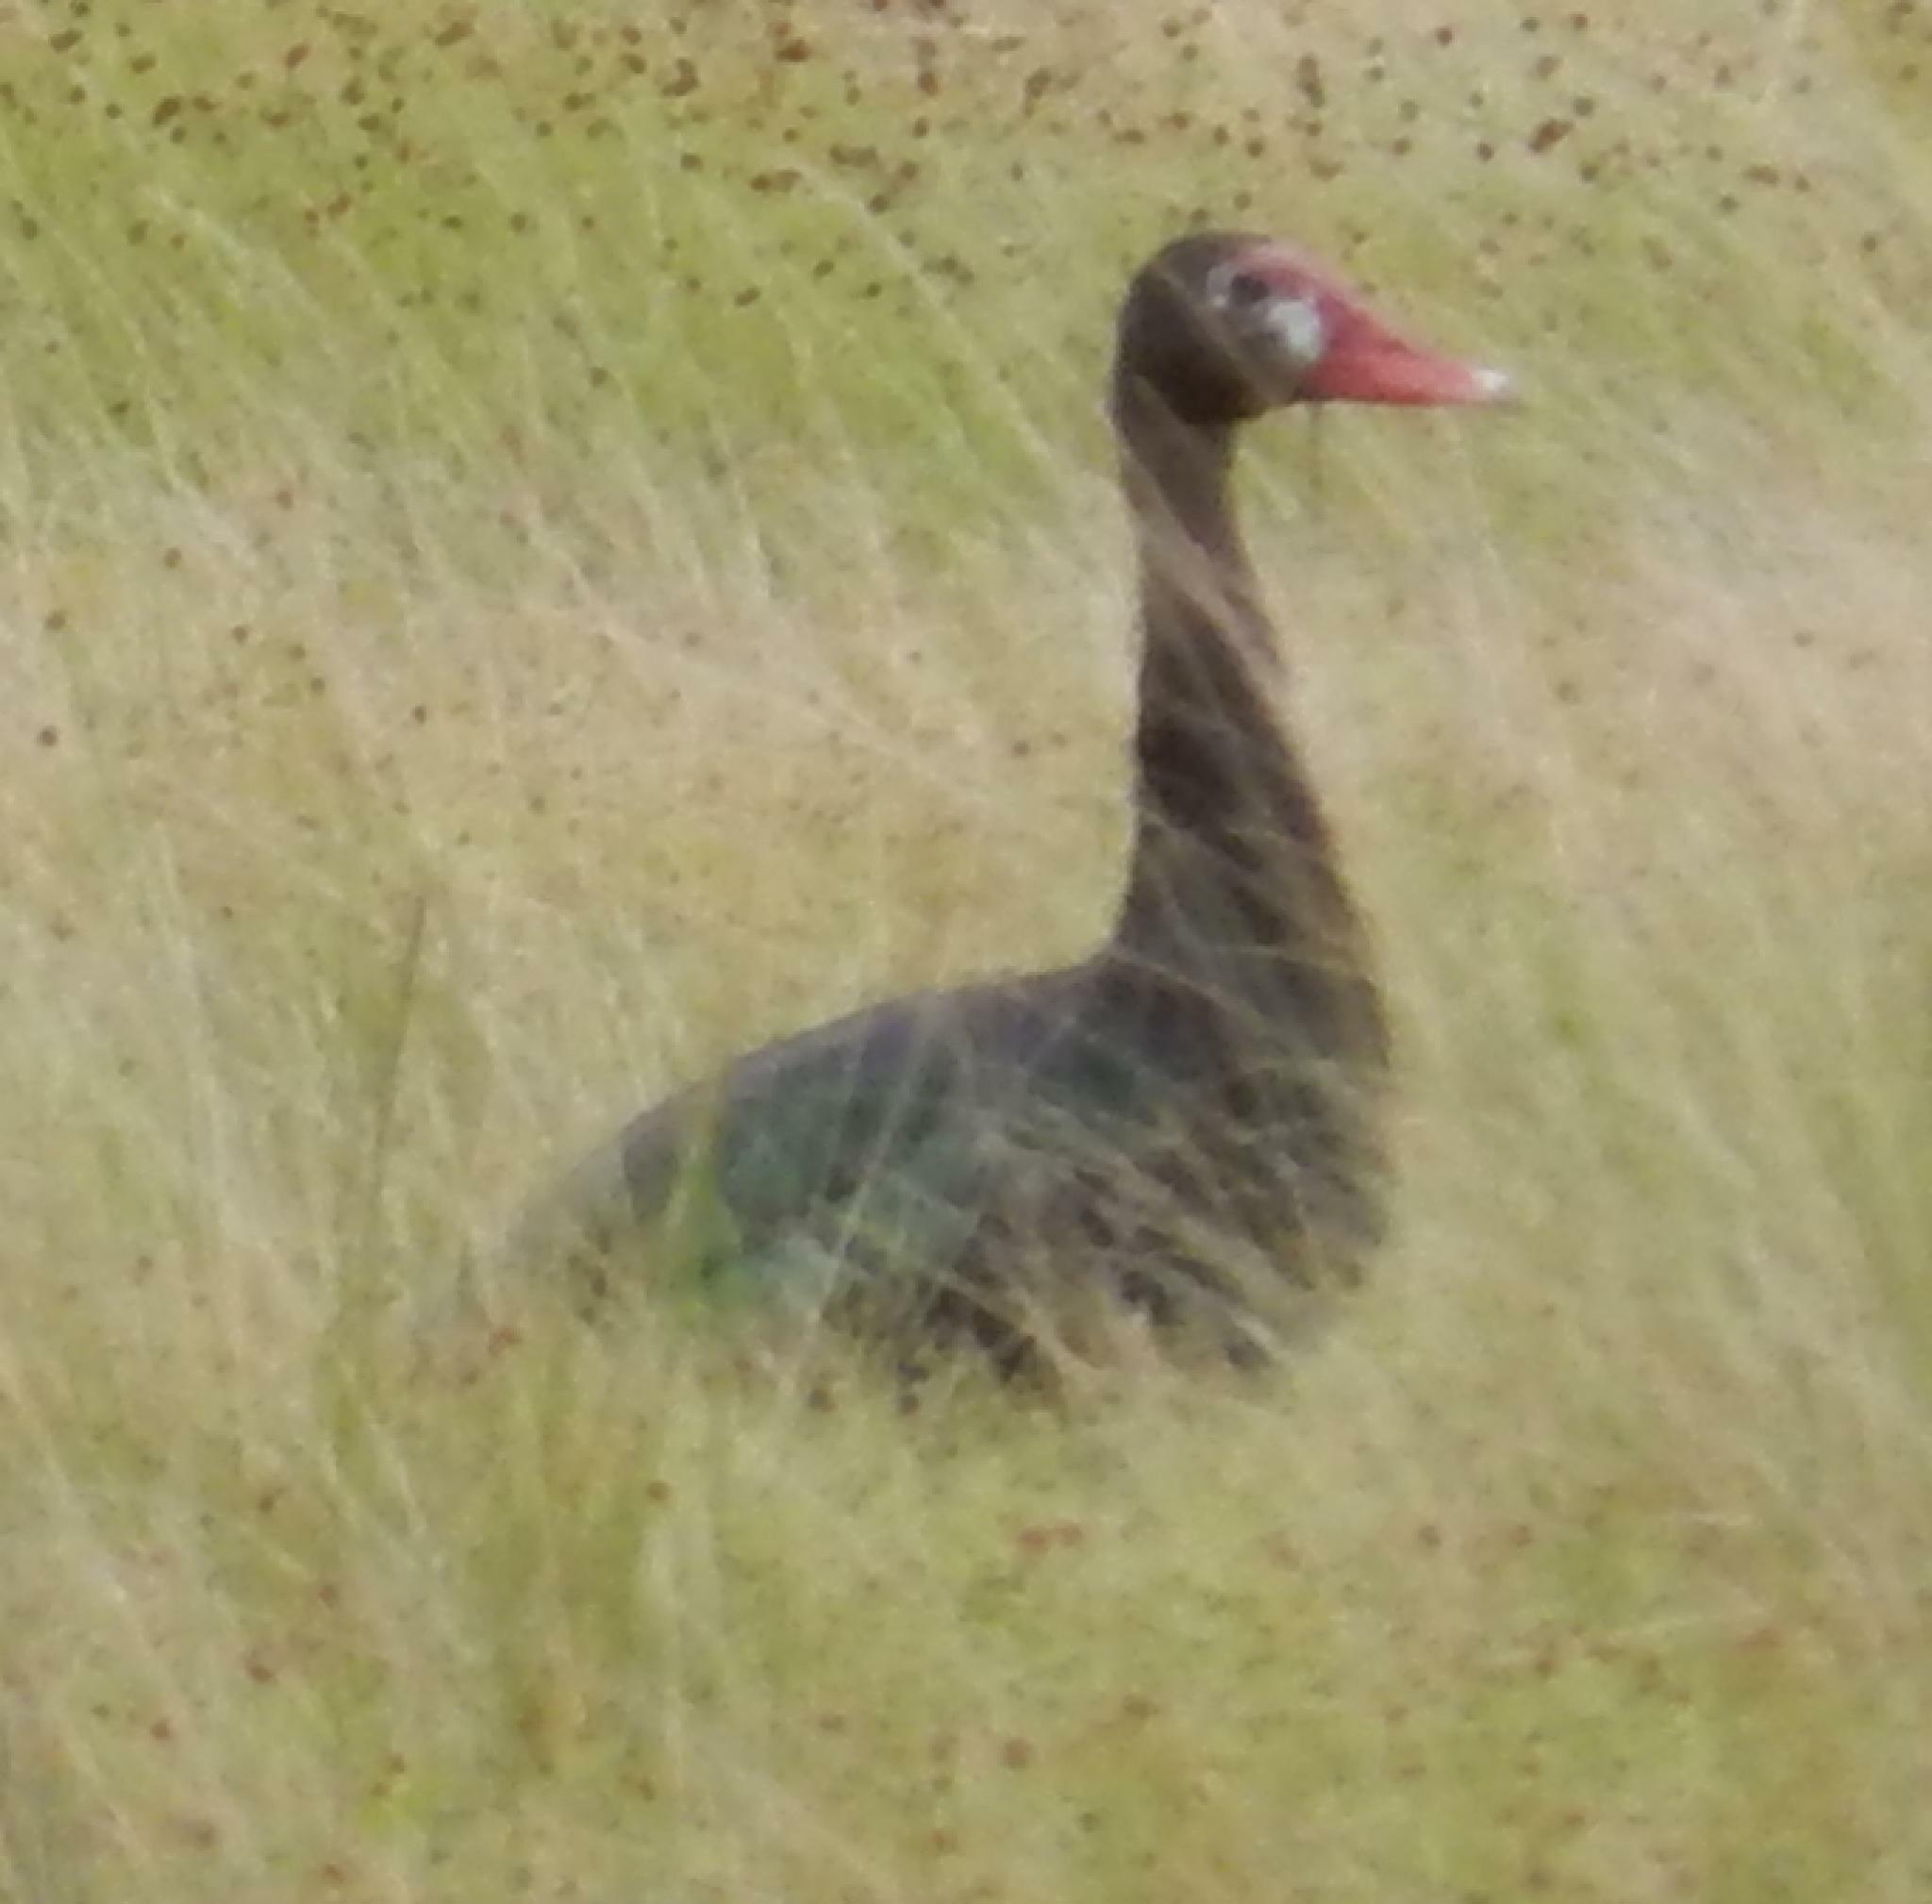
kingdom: Animalia
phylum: Chordata
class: Aves
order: Anseriformes
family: Anatidae
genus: Plectropterus
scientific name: Plectropterus gambensis
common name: Spur-winged goose
